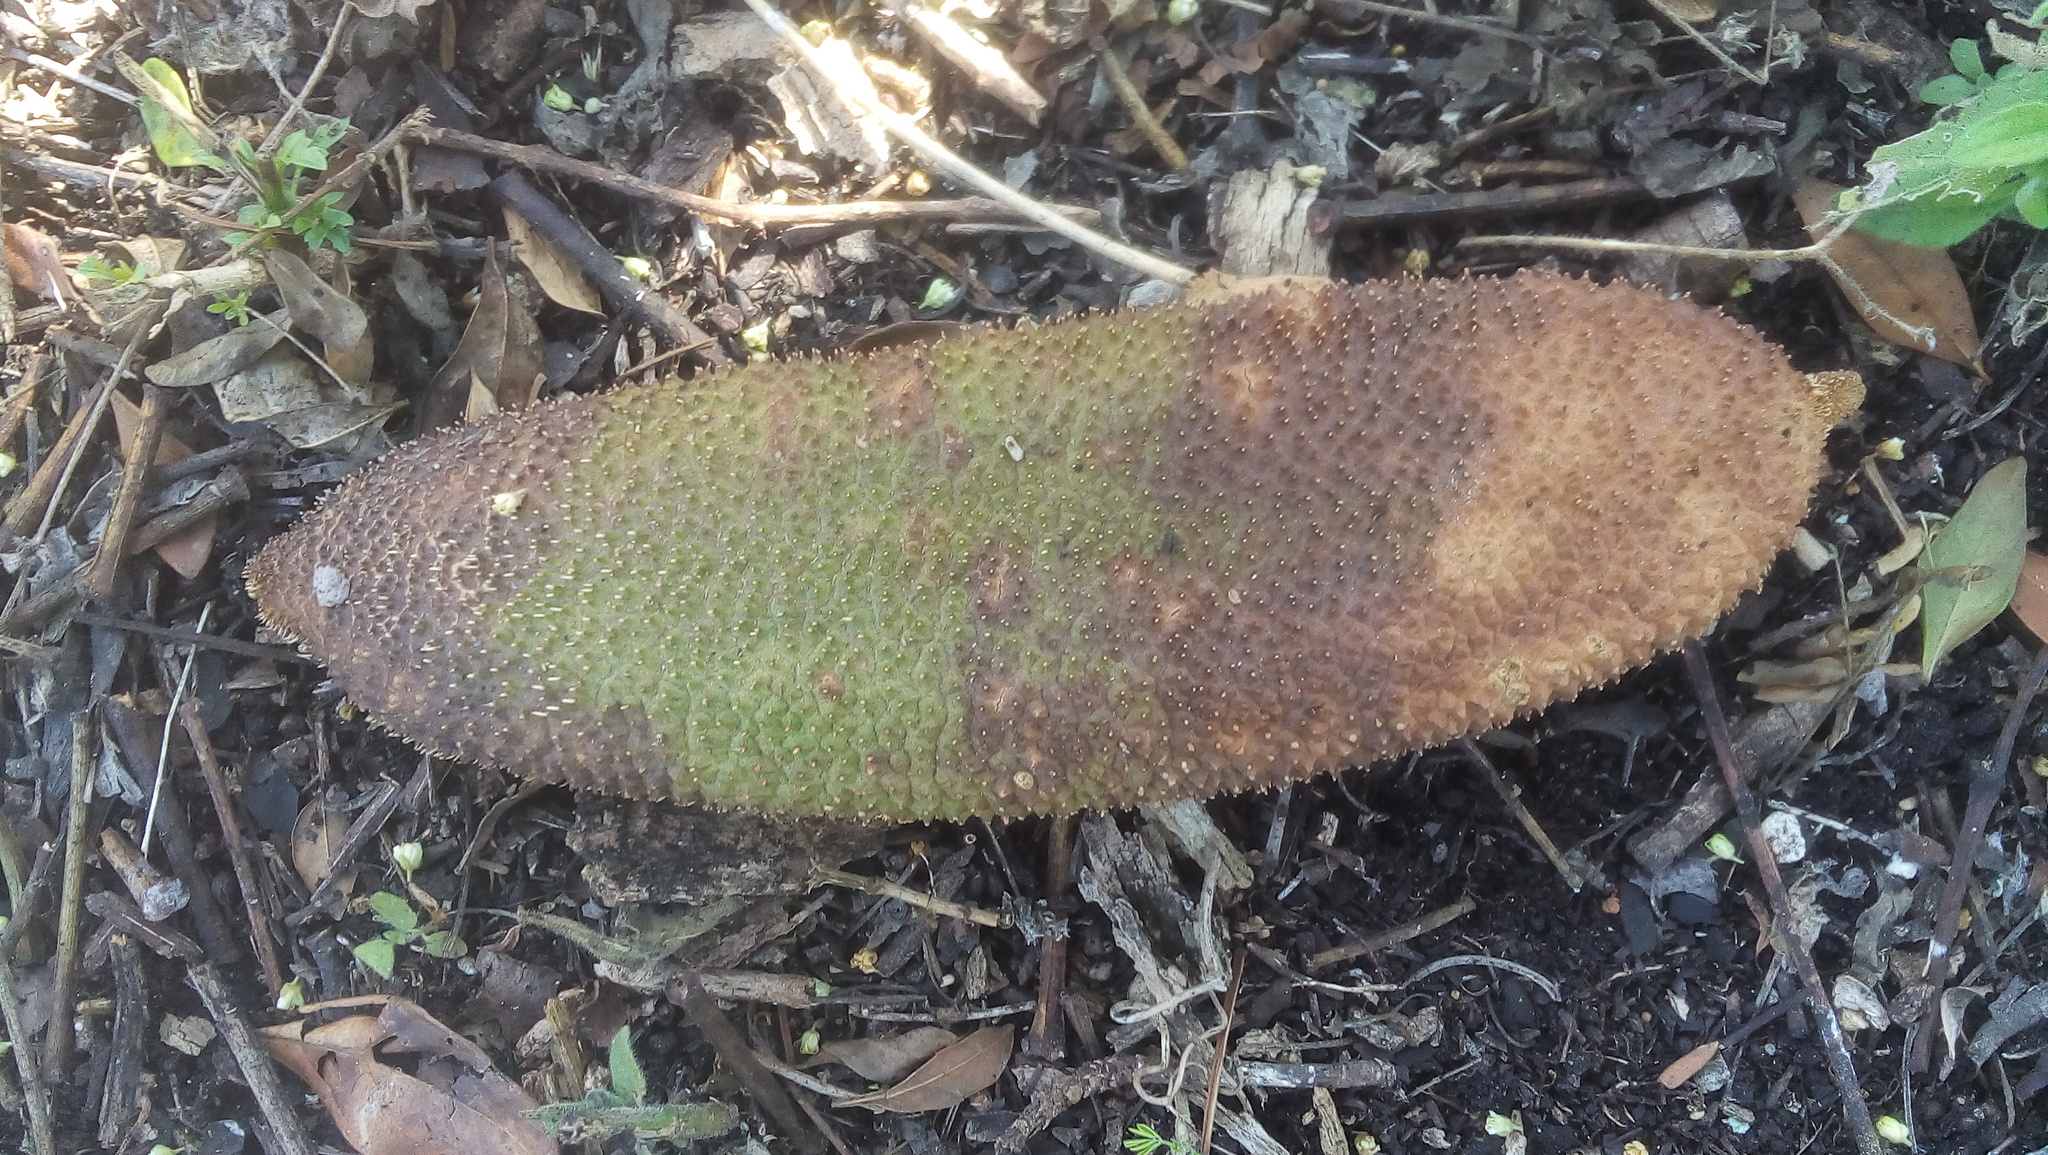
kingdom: Plantae
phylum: Tracheophyta
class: Magnoliopsida
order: Lamiales
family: Bignoniaceae
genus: Amphilophium
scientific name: Amphilophium crucigerum
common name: Monkey comb
